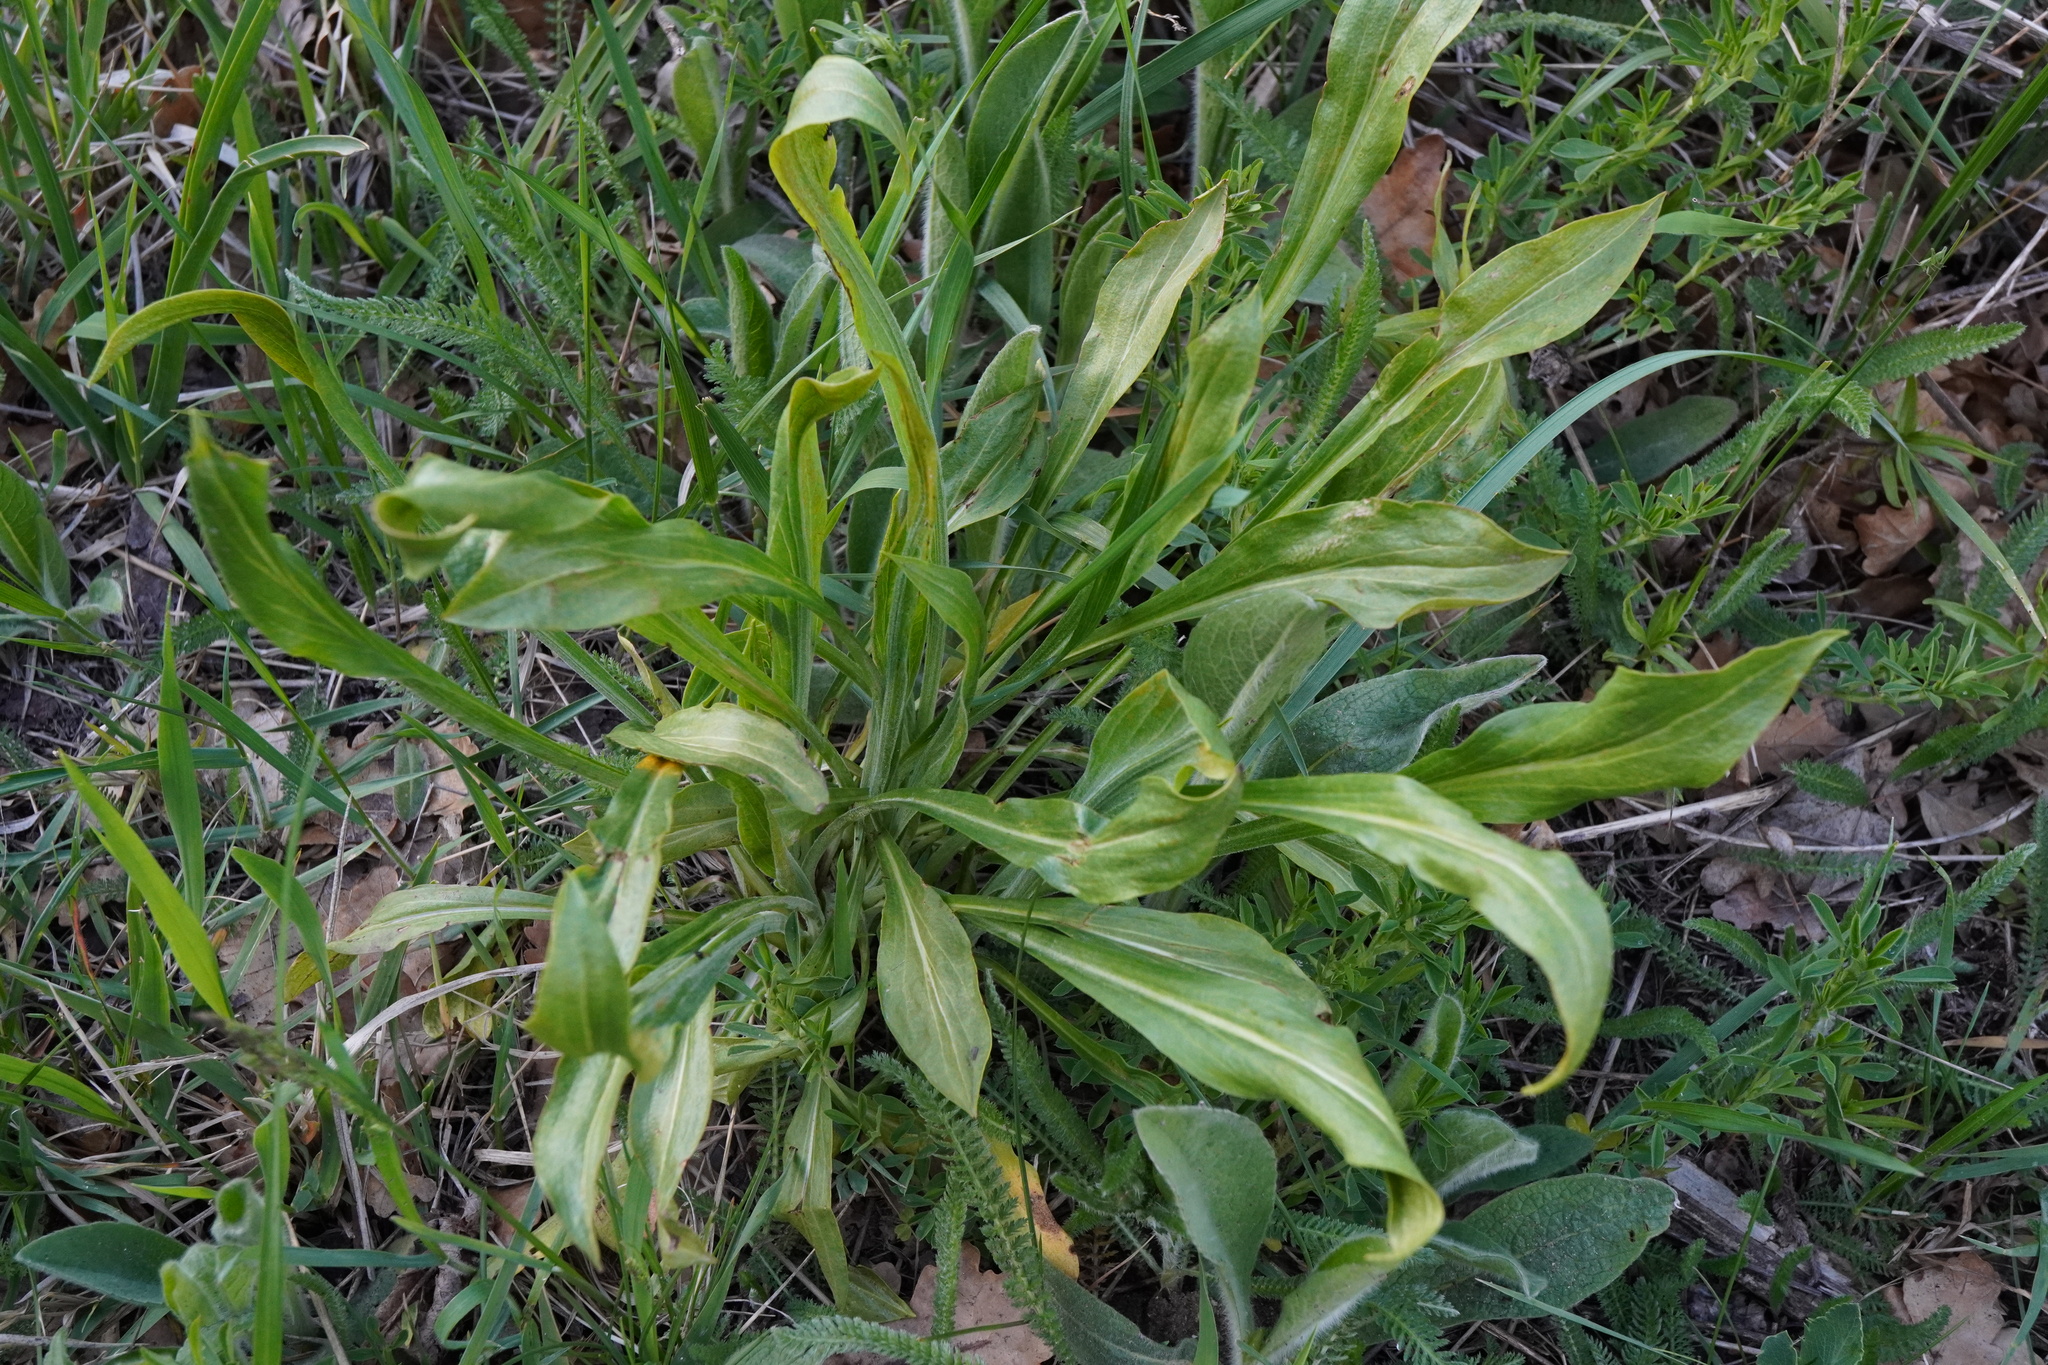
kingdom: Plantae
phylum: Tracheophyta
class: Magnoliopsida
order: Asterales
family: Asteraceae
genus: Pseudopodospermum
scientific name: Pseudopodospermum hispanicum
